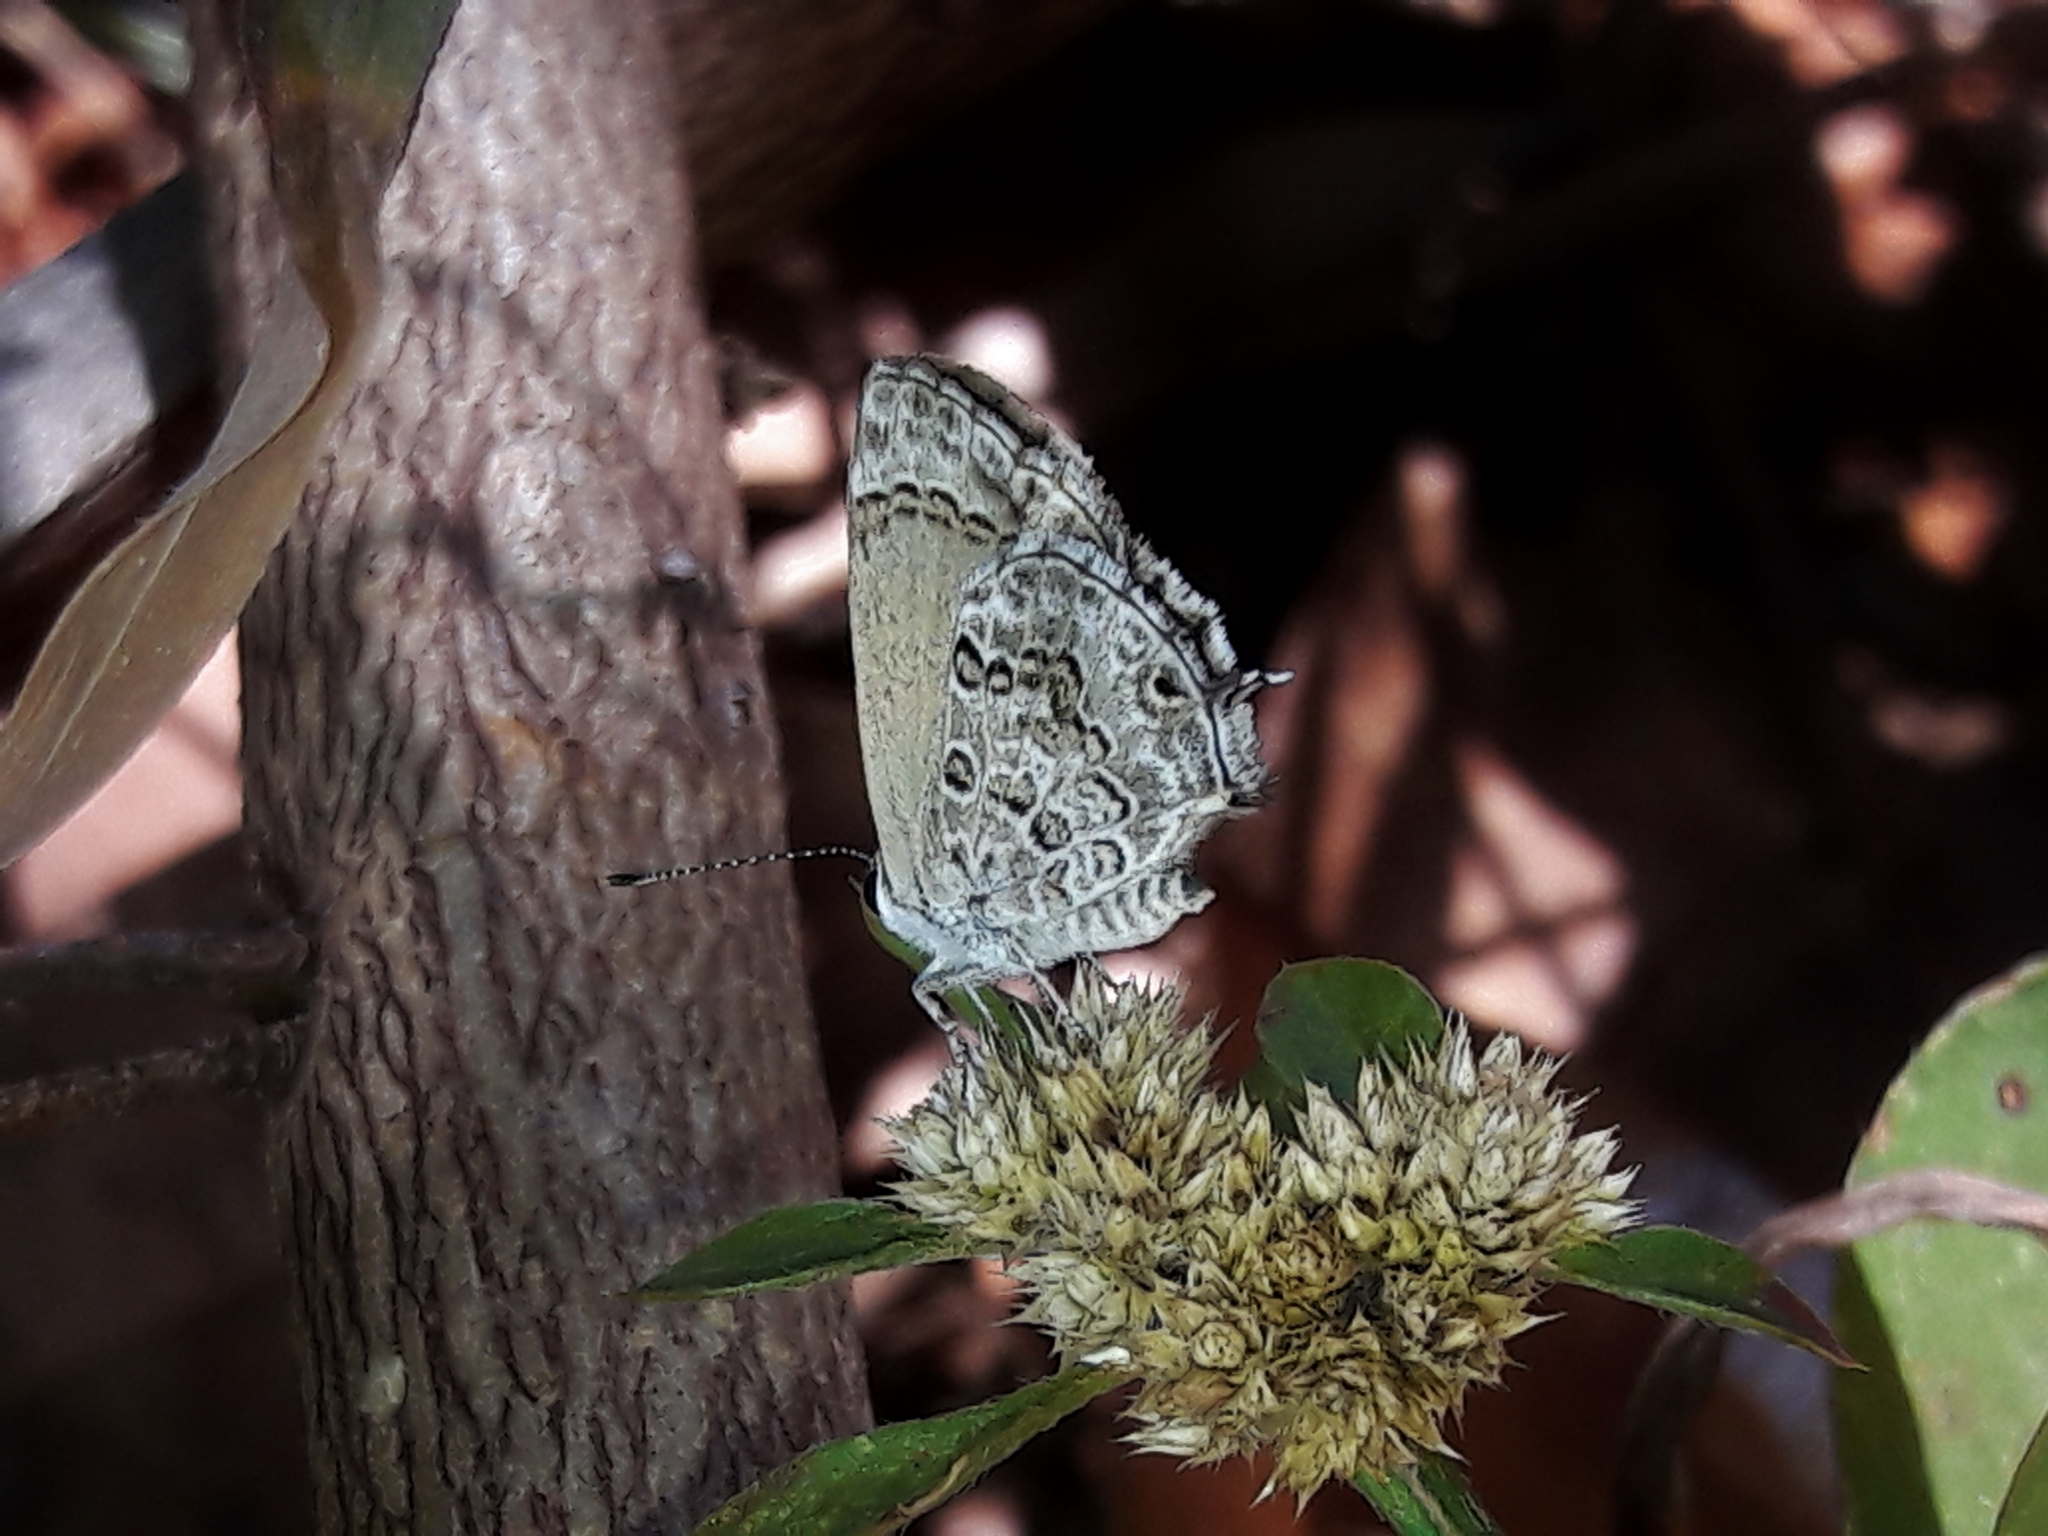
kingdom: Animalia
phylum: Arthropoda
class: Insecta
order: Lepidoptera
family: Lycaenidae
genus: Strymon
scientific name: Strymon astiocha
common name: Gray-spotted scrub-hairstreak
